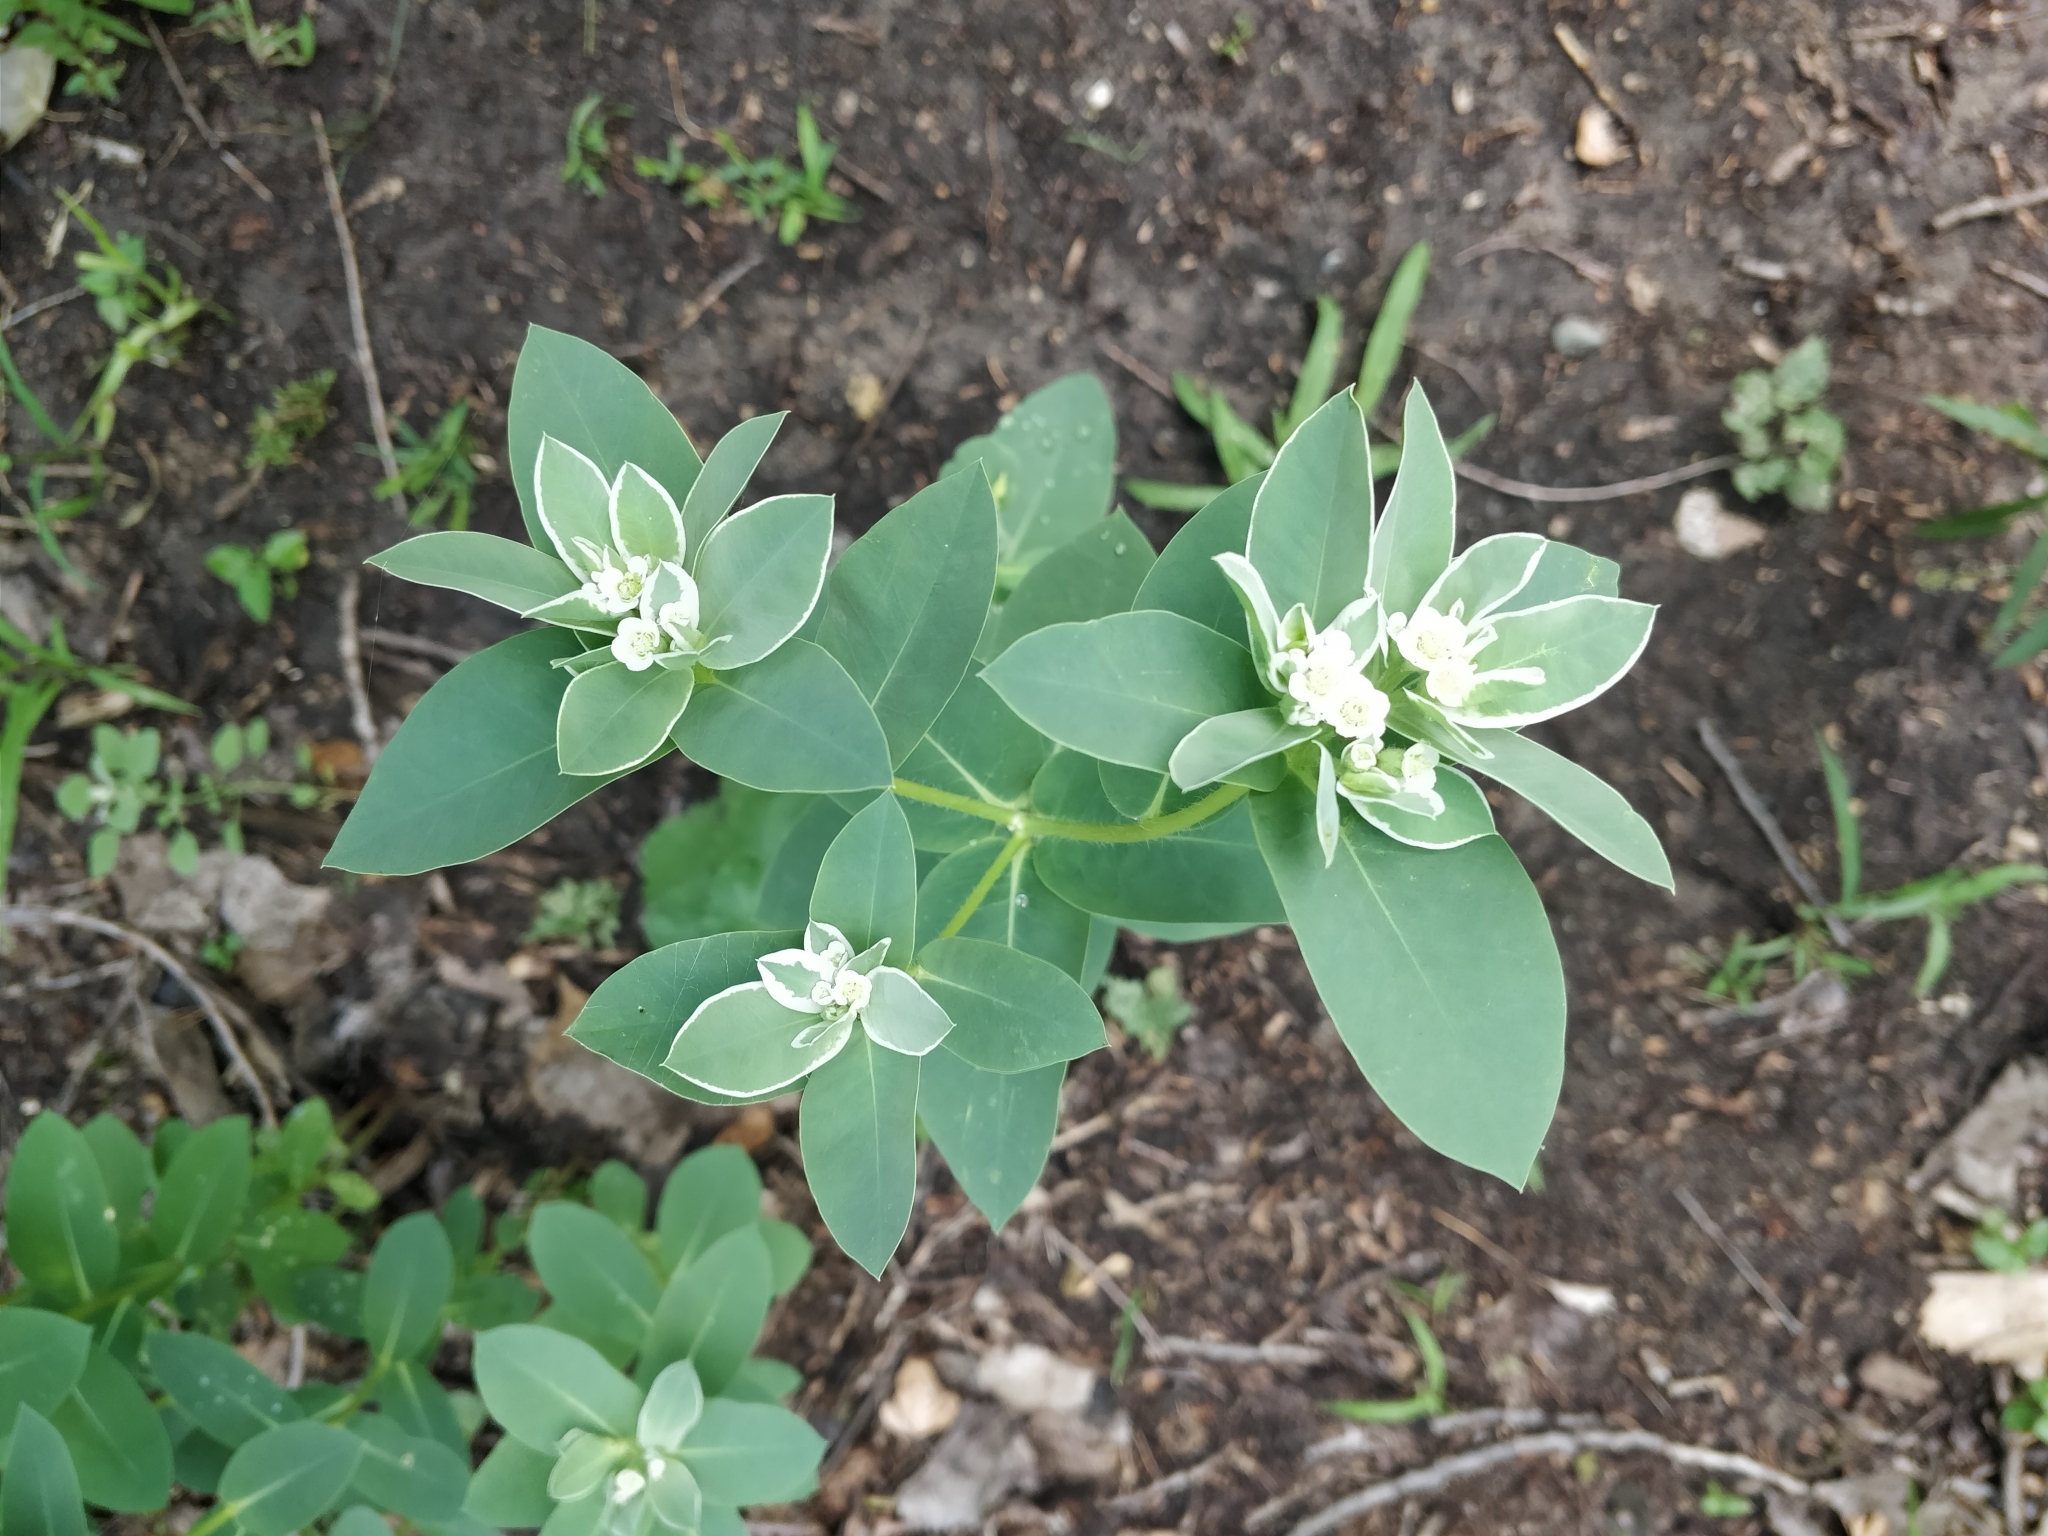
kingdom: Plantae
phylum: Tracheophyta
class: Magnoliopsida
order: Malpighiales
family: Euphorbiaceae
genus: Euphorbia
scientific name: Euphorbia marginata
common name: Ghostweed
